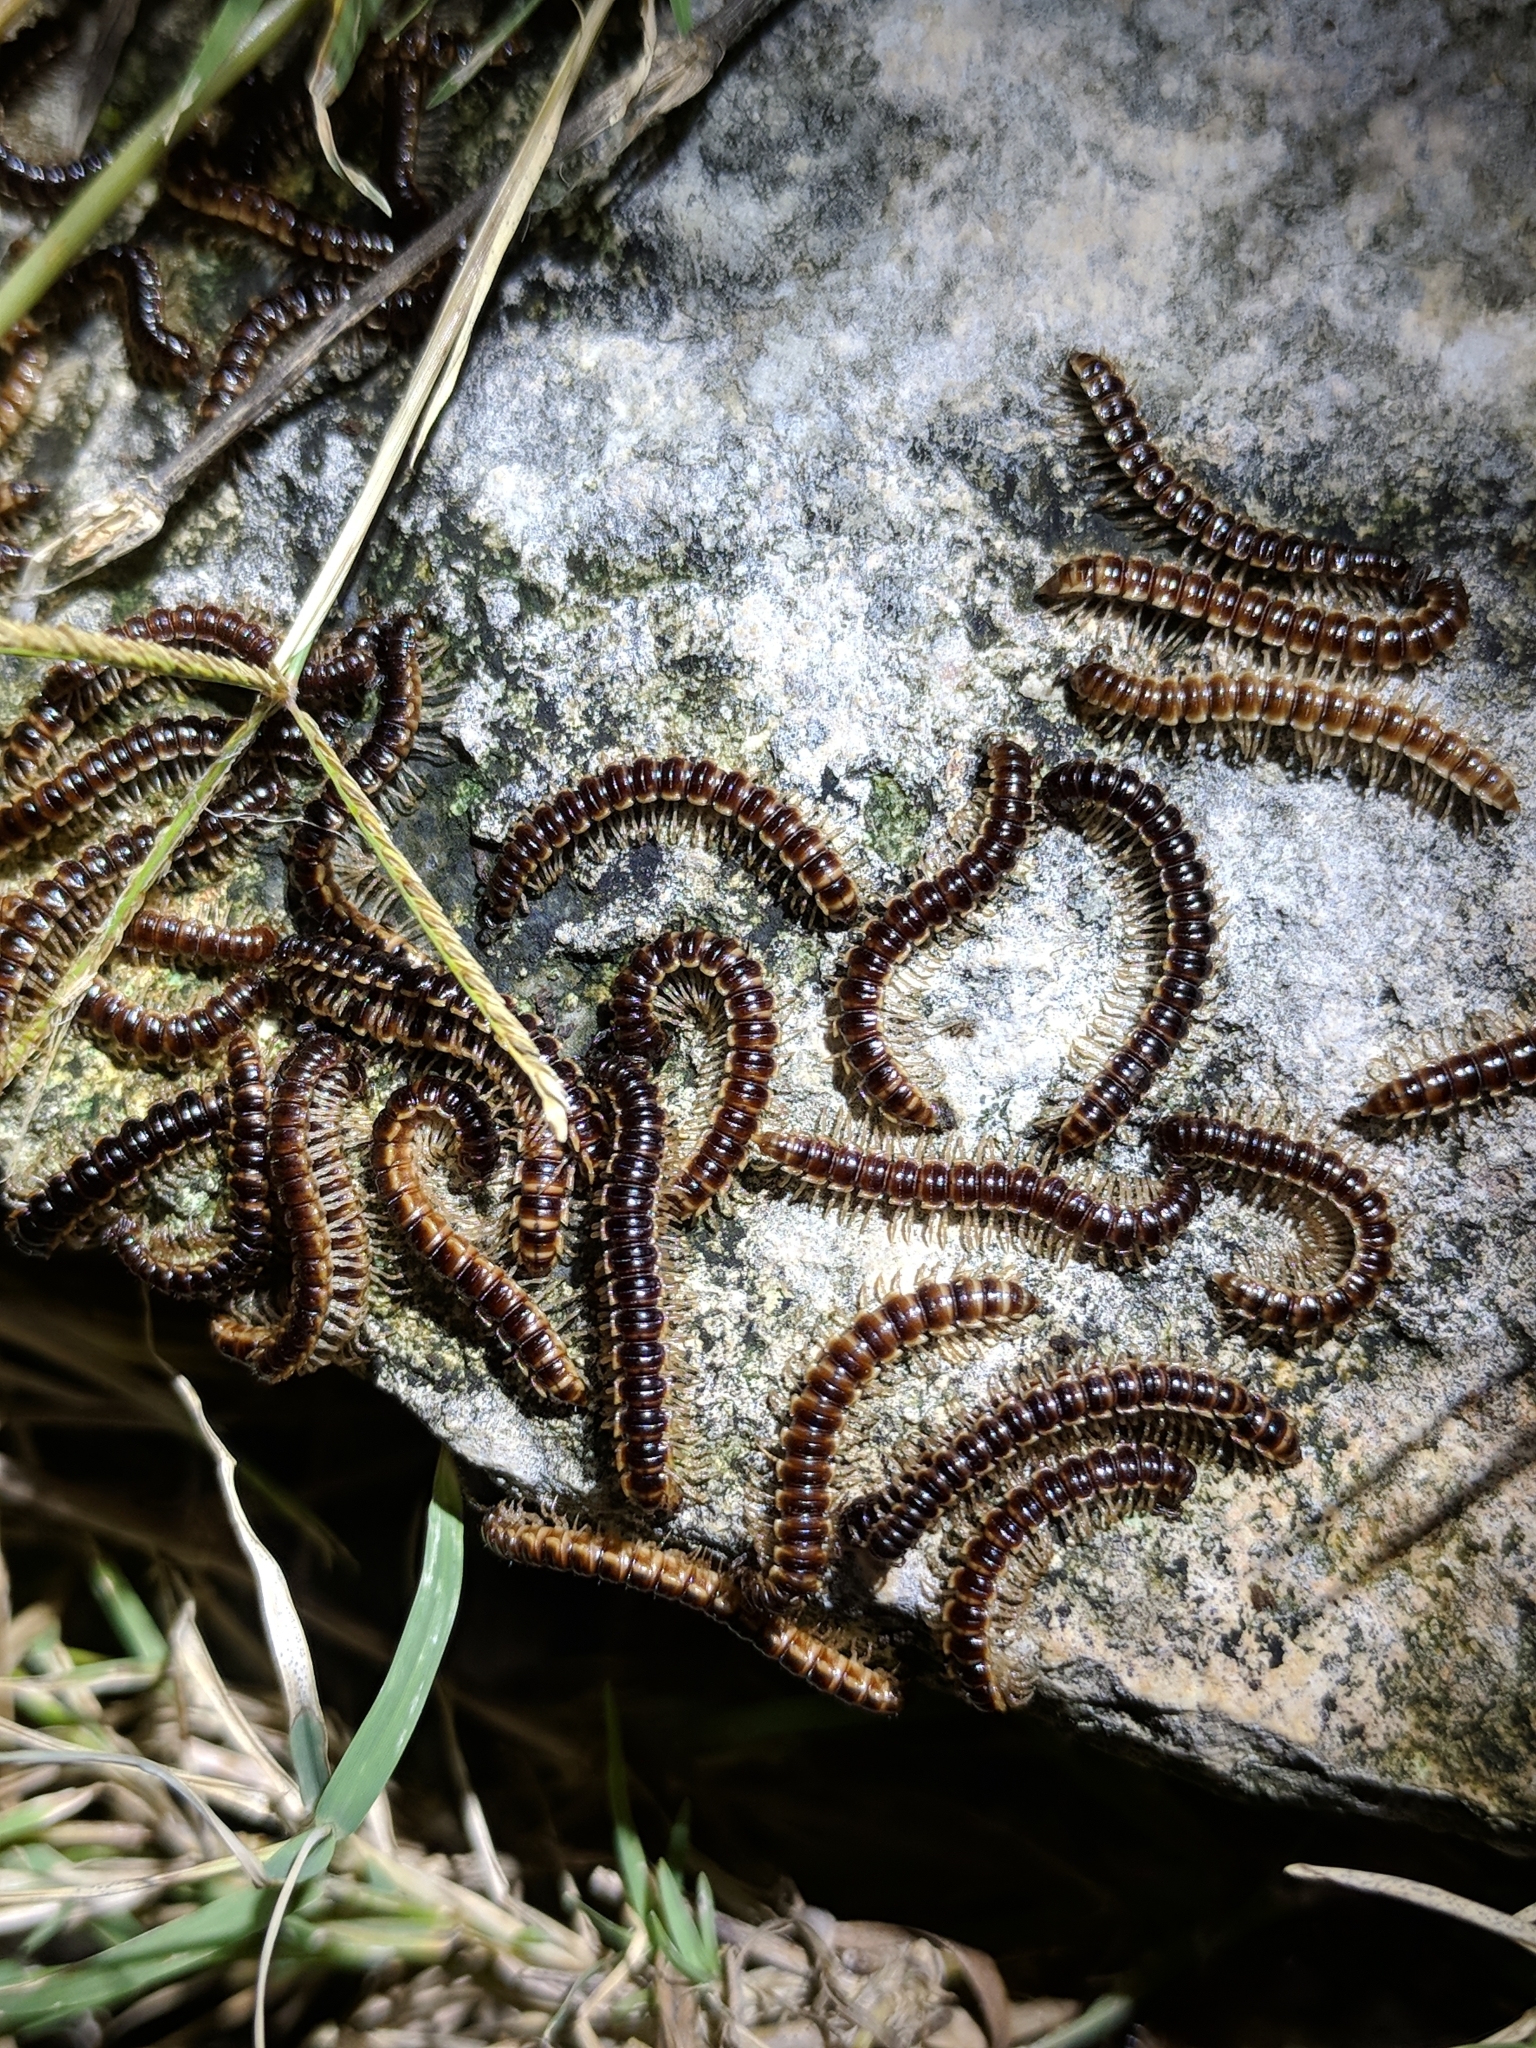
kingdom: Animalia
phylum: Arthropoda
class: Diplopoda
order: Polydesmida
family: Paradoxosomatidae
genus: Oxidus
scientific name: Oxidus gracilis
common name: Greenhouse millipede
